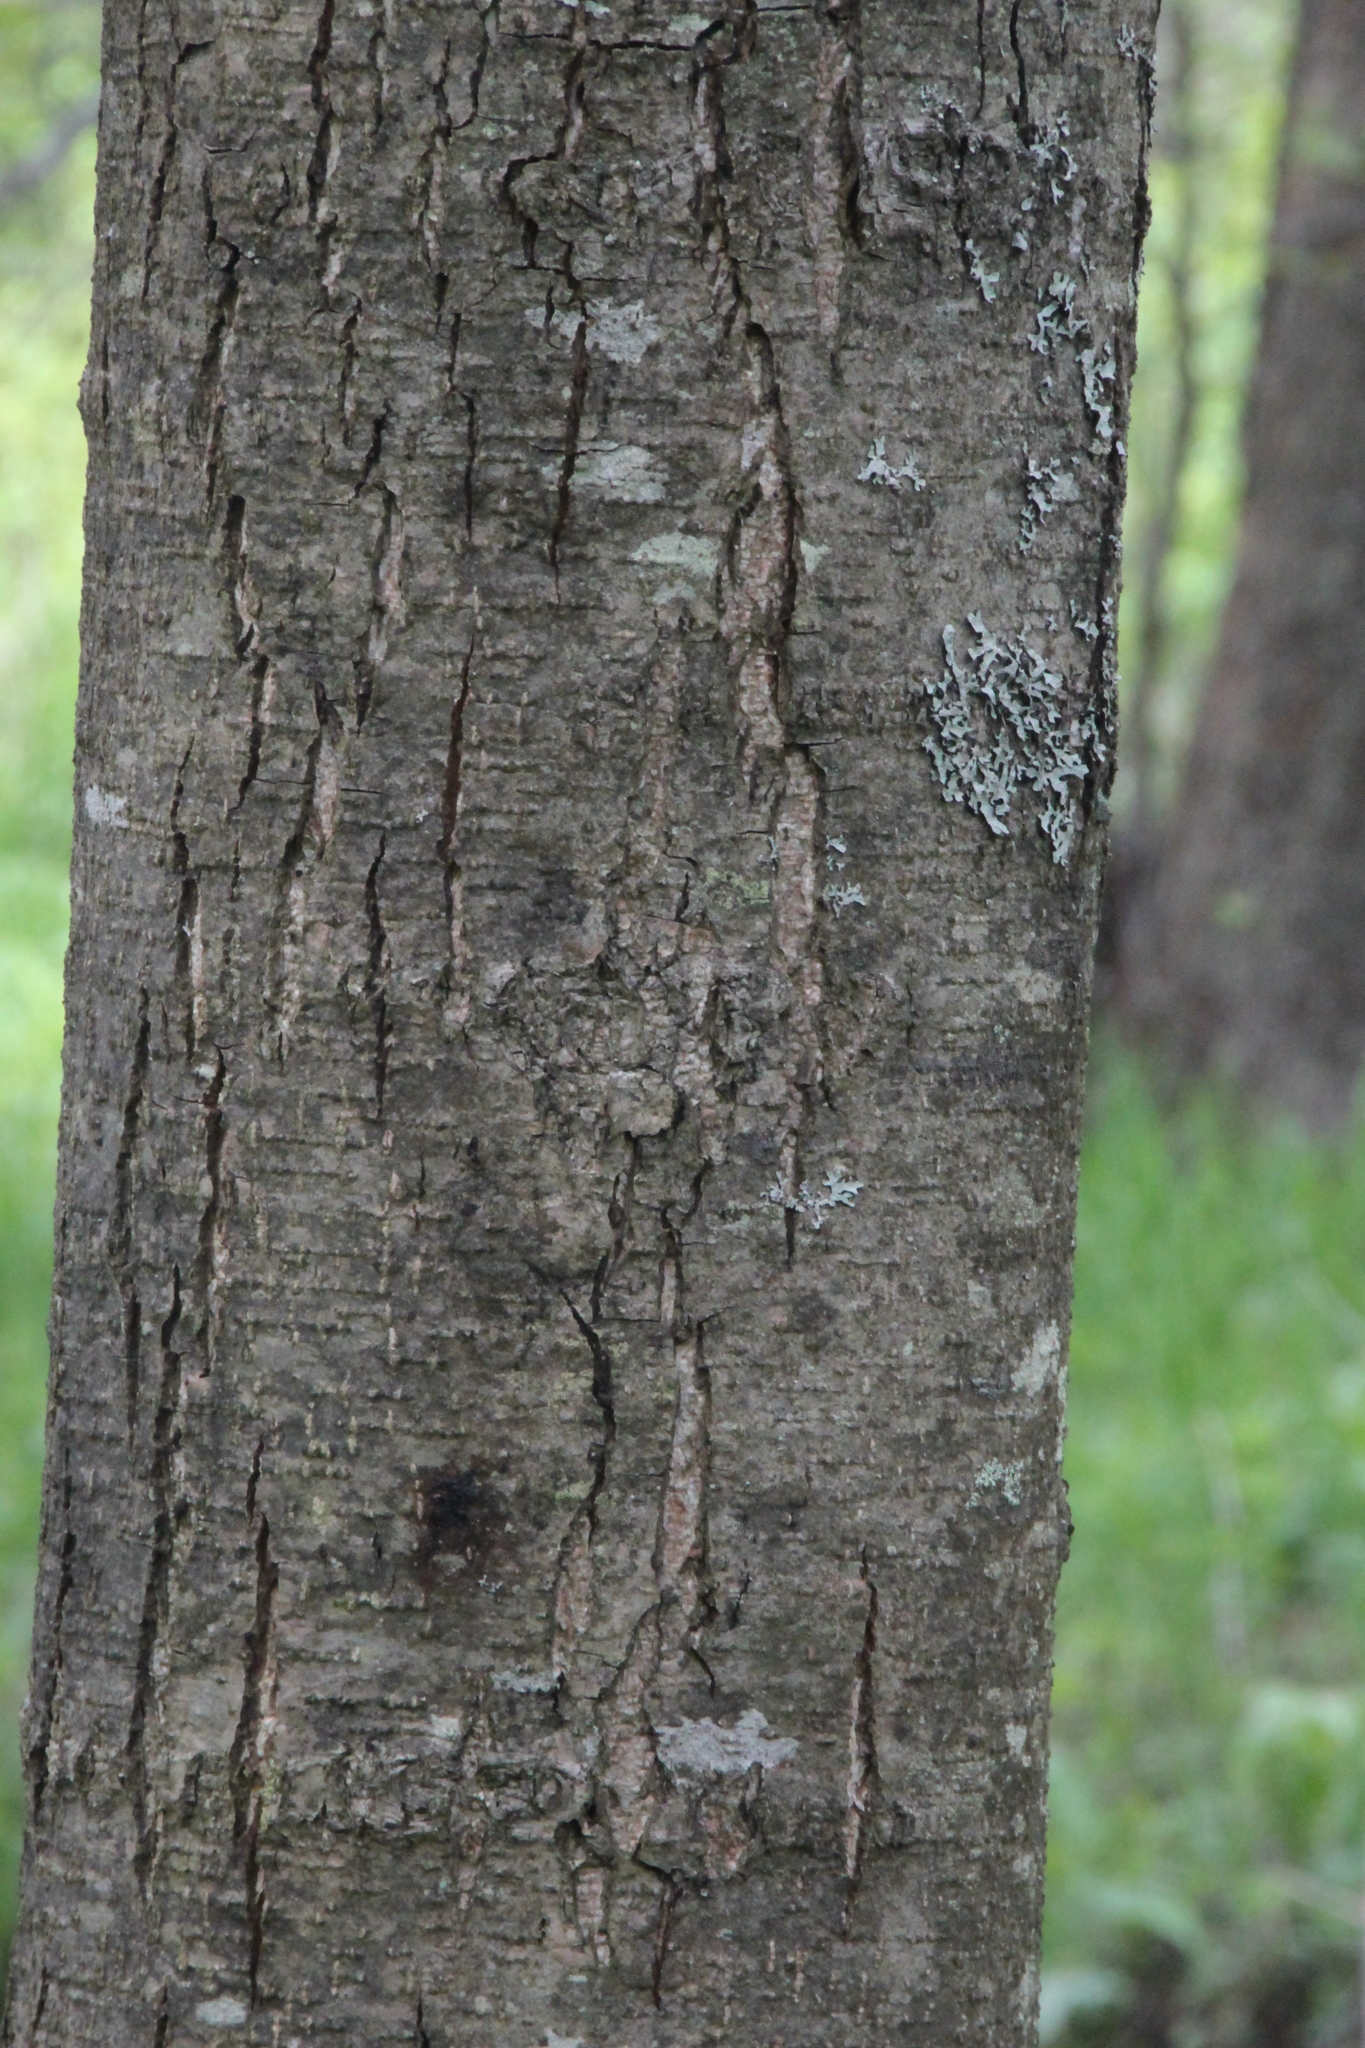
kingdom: Plantae
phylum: Tracheophyta
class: Magnoliopsida
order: Fagales
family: Betulaceae
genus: Alnus
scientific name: Alnus glutinosa
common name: Black alder
